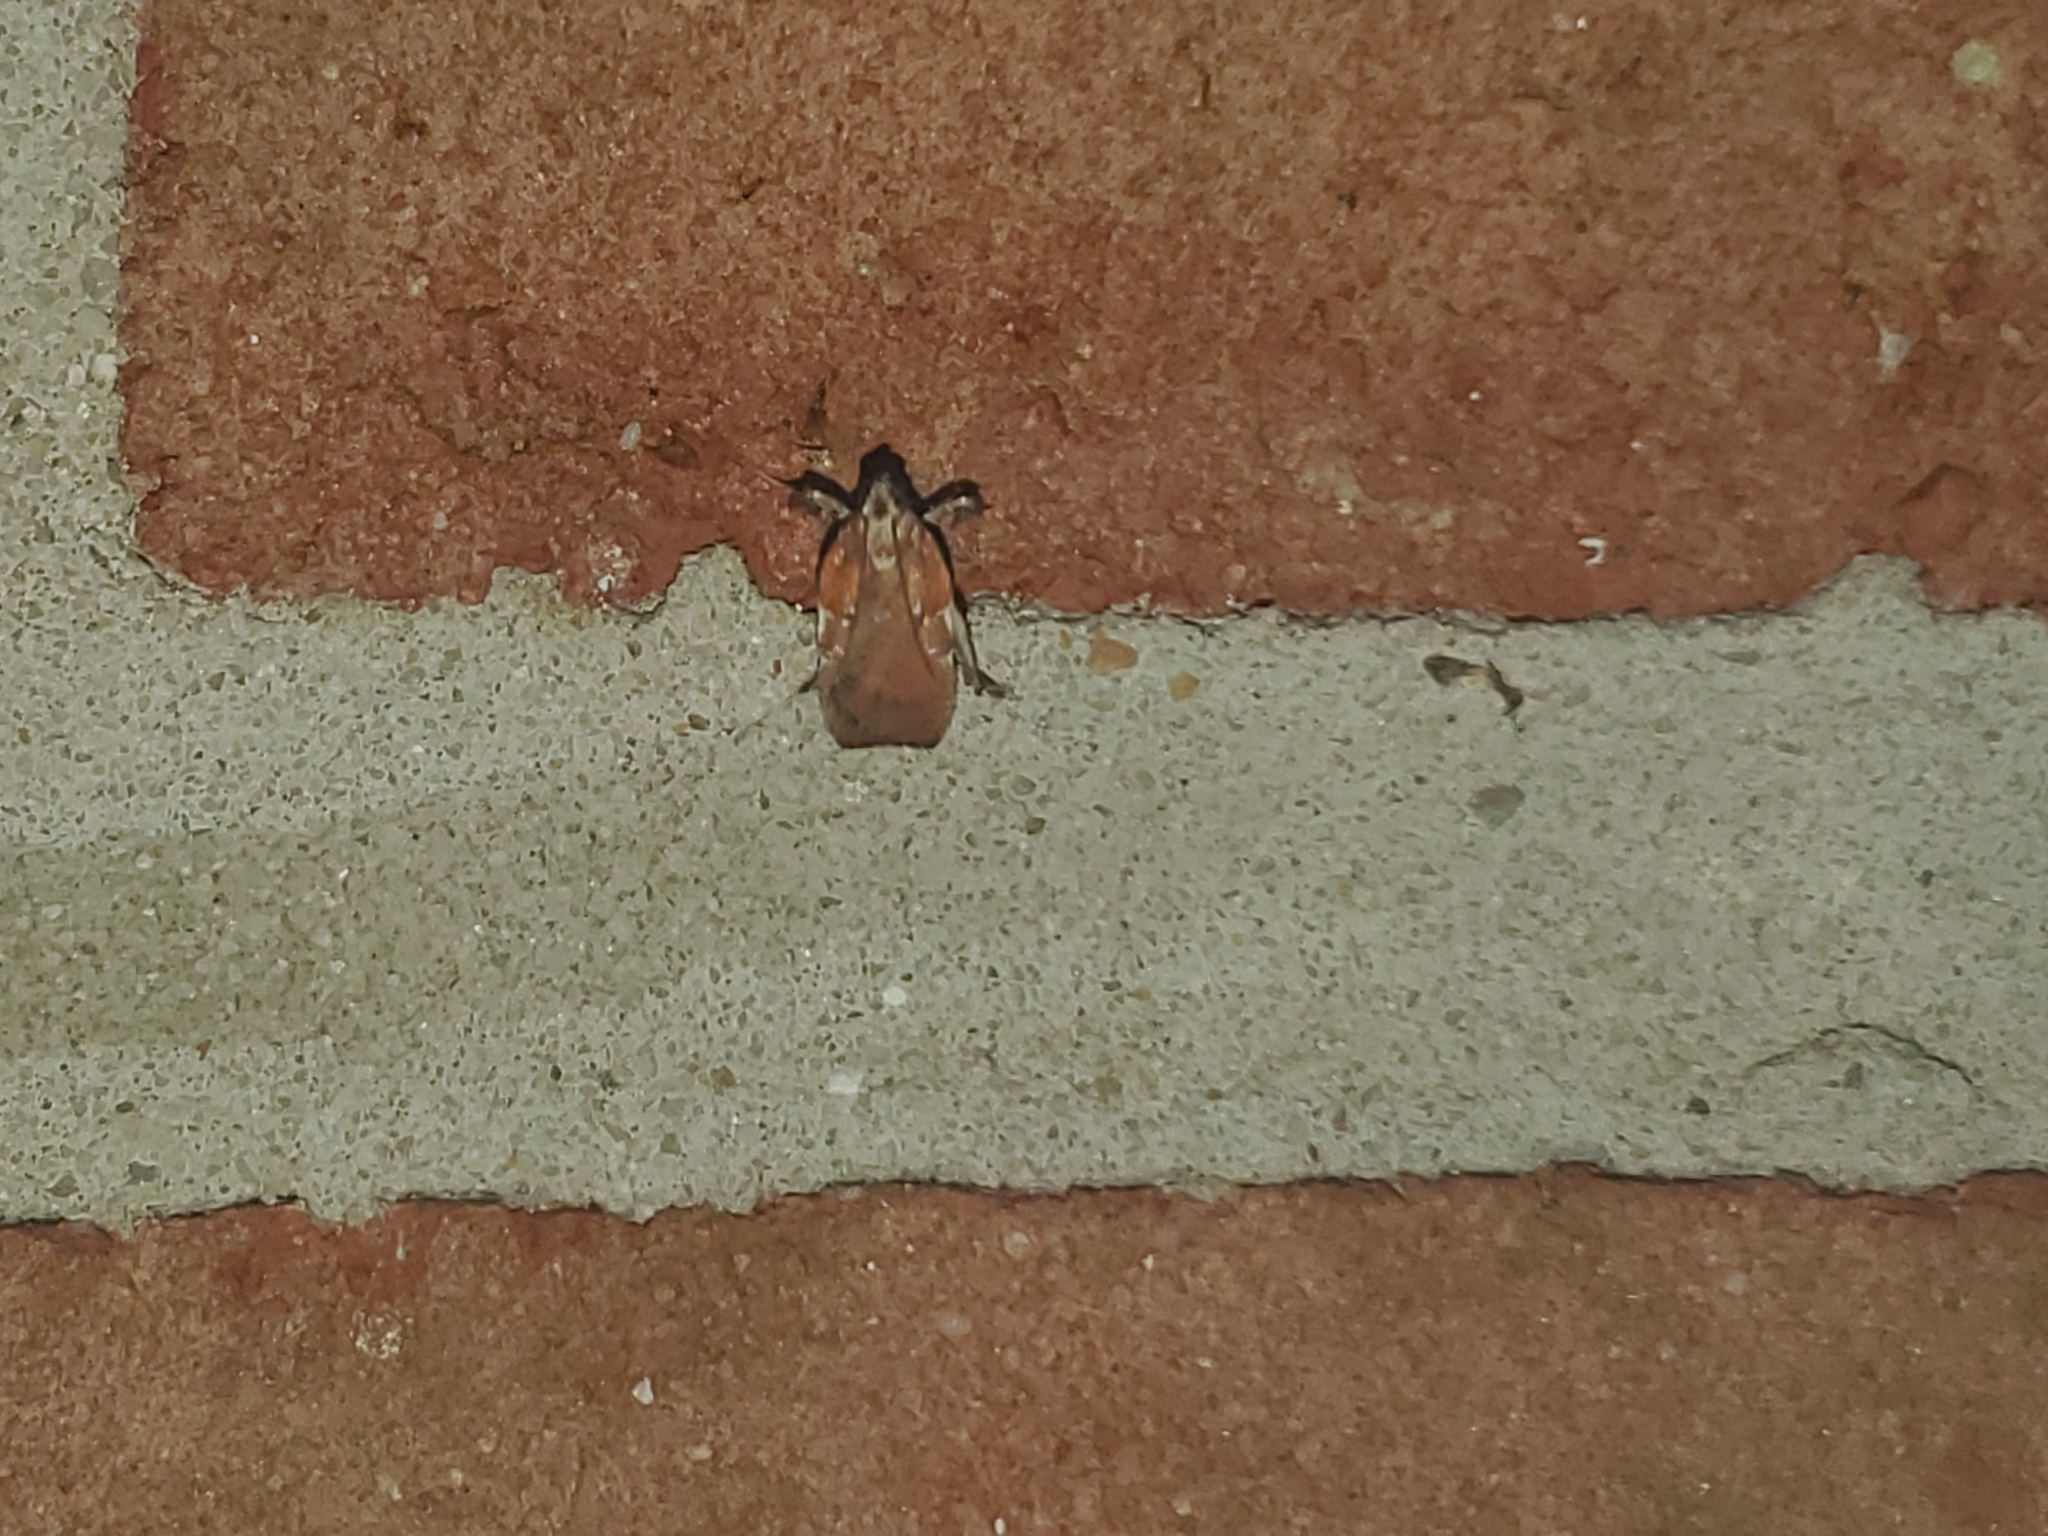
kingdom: Animalia
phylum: Arthropoda
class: Insecta
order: Lepidoptera
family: Pyralidae
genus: Galasa
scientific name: Galasa nigrinodis
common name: Boxwood leaftier moth
